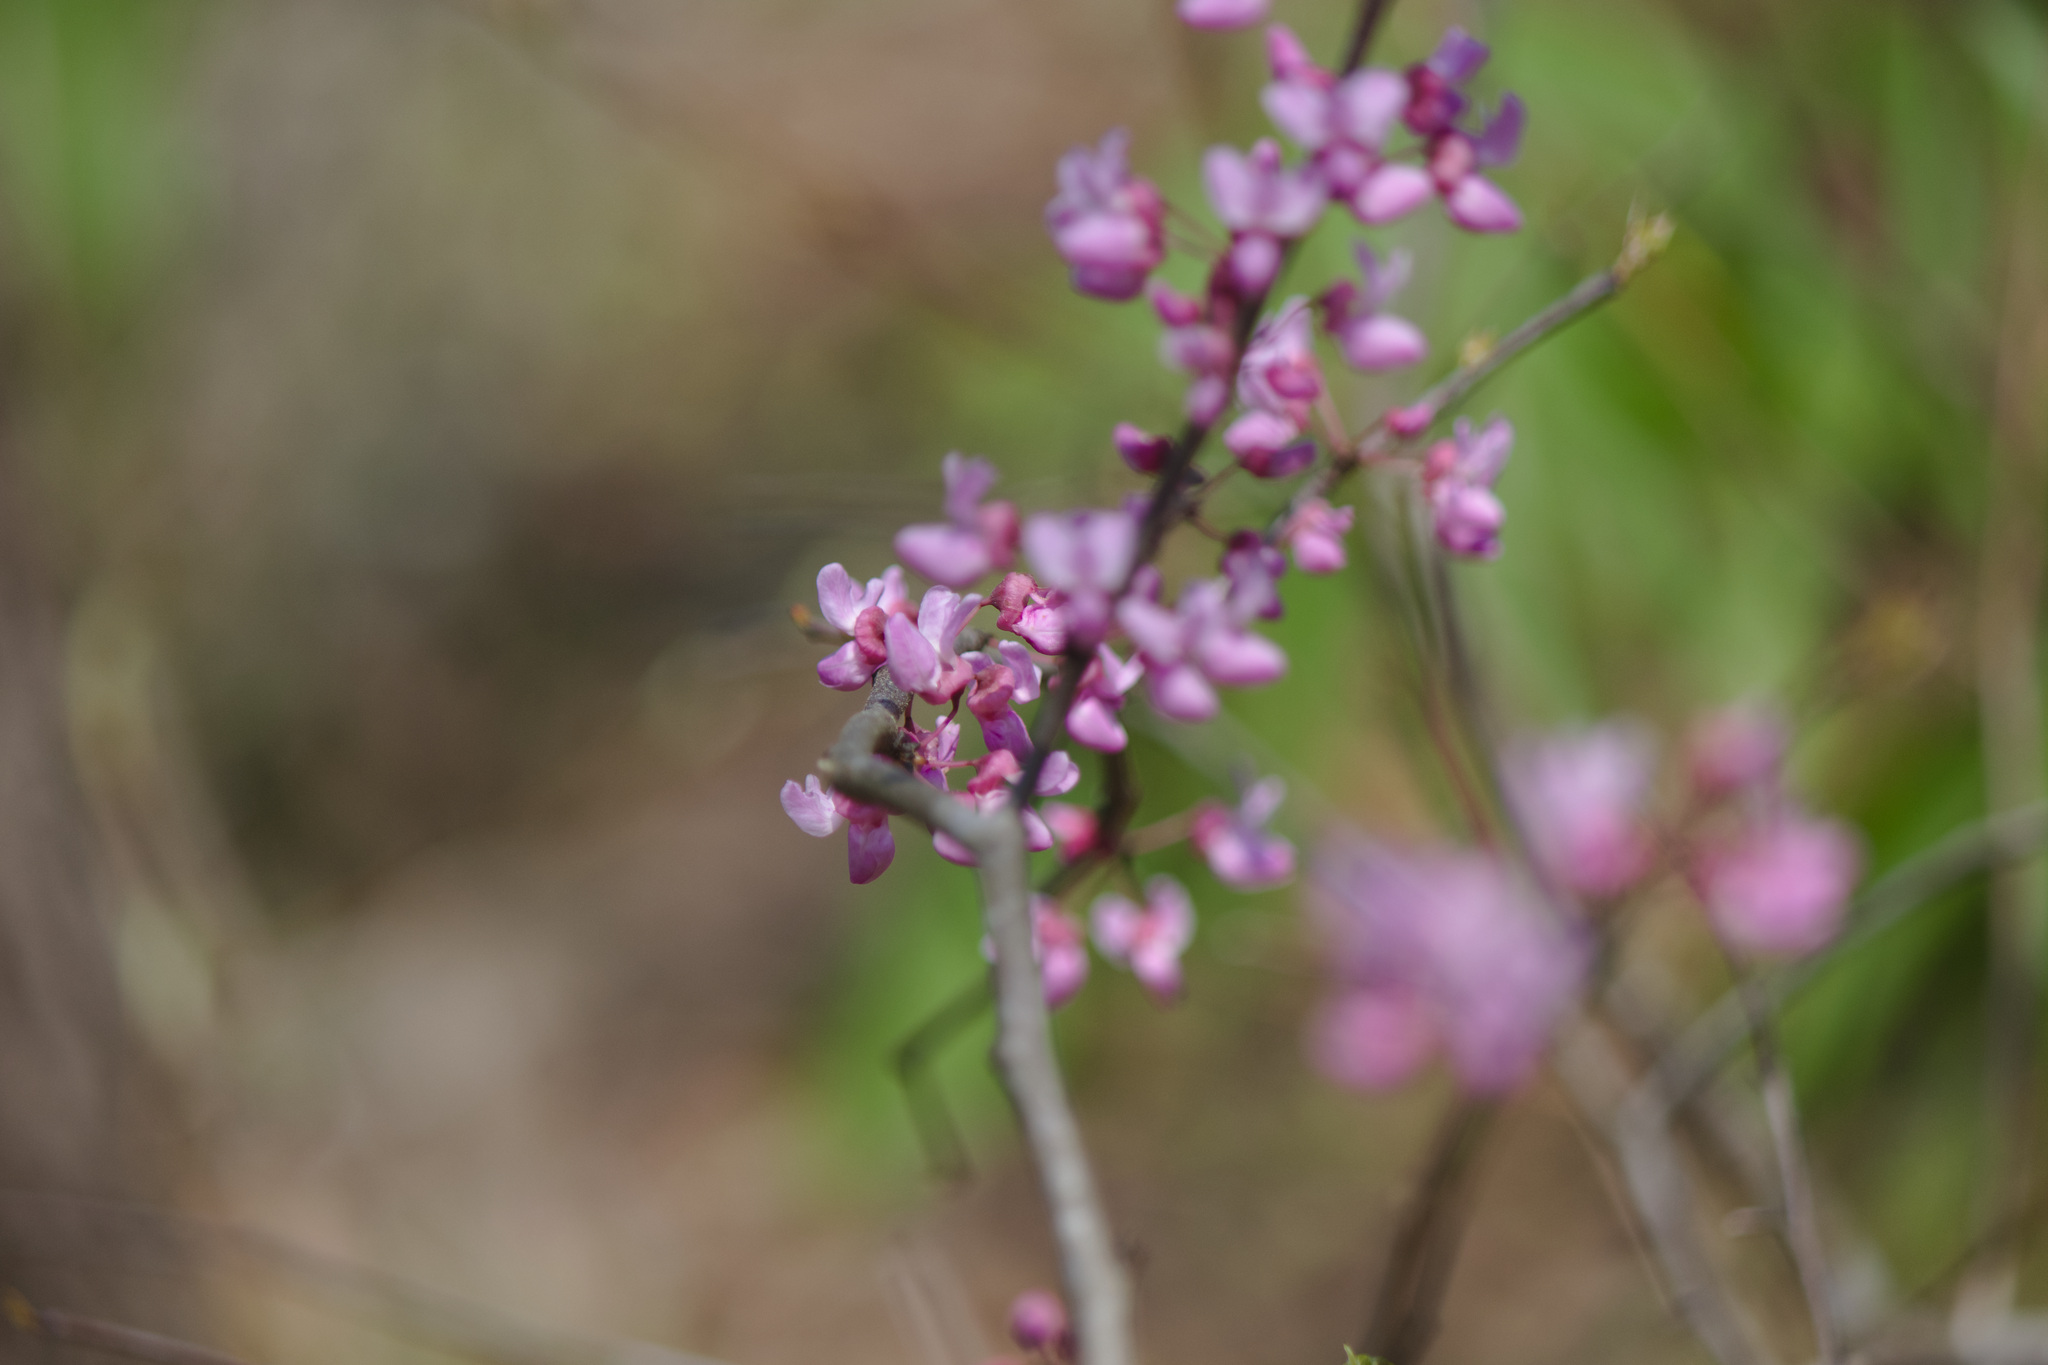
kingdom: Plantae
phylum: Tracheophyta
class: Magnoliopsida
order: Fabales
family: Fabaceae
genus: Cercis
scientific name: Cercis canadensis
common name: Eastern redbud
